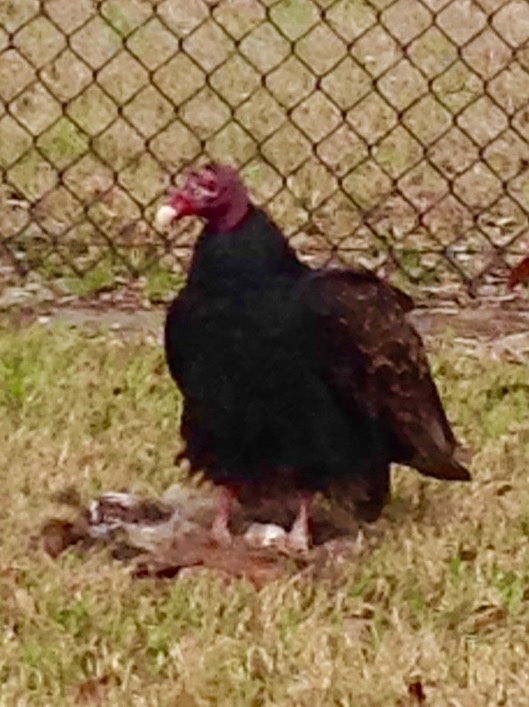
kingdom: Animalia
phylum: Chordata
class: Aves
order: Accipitriformes
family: Cathartidae
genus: Cathartes
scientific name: Cathartes aura
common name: Turkey vulture
